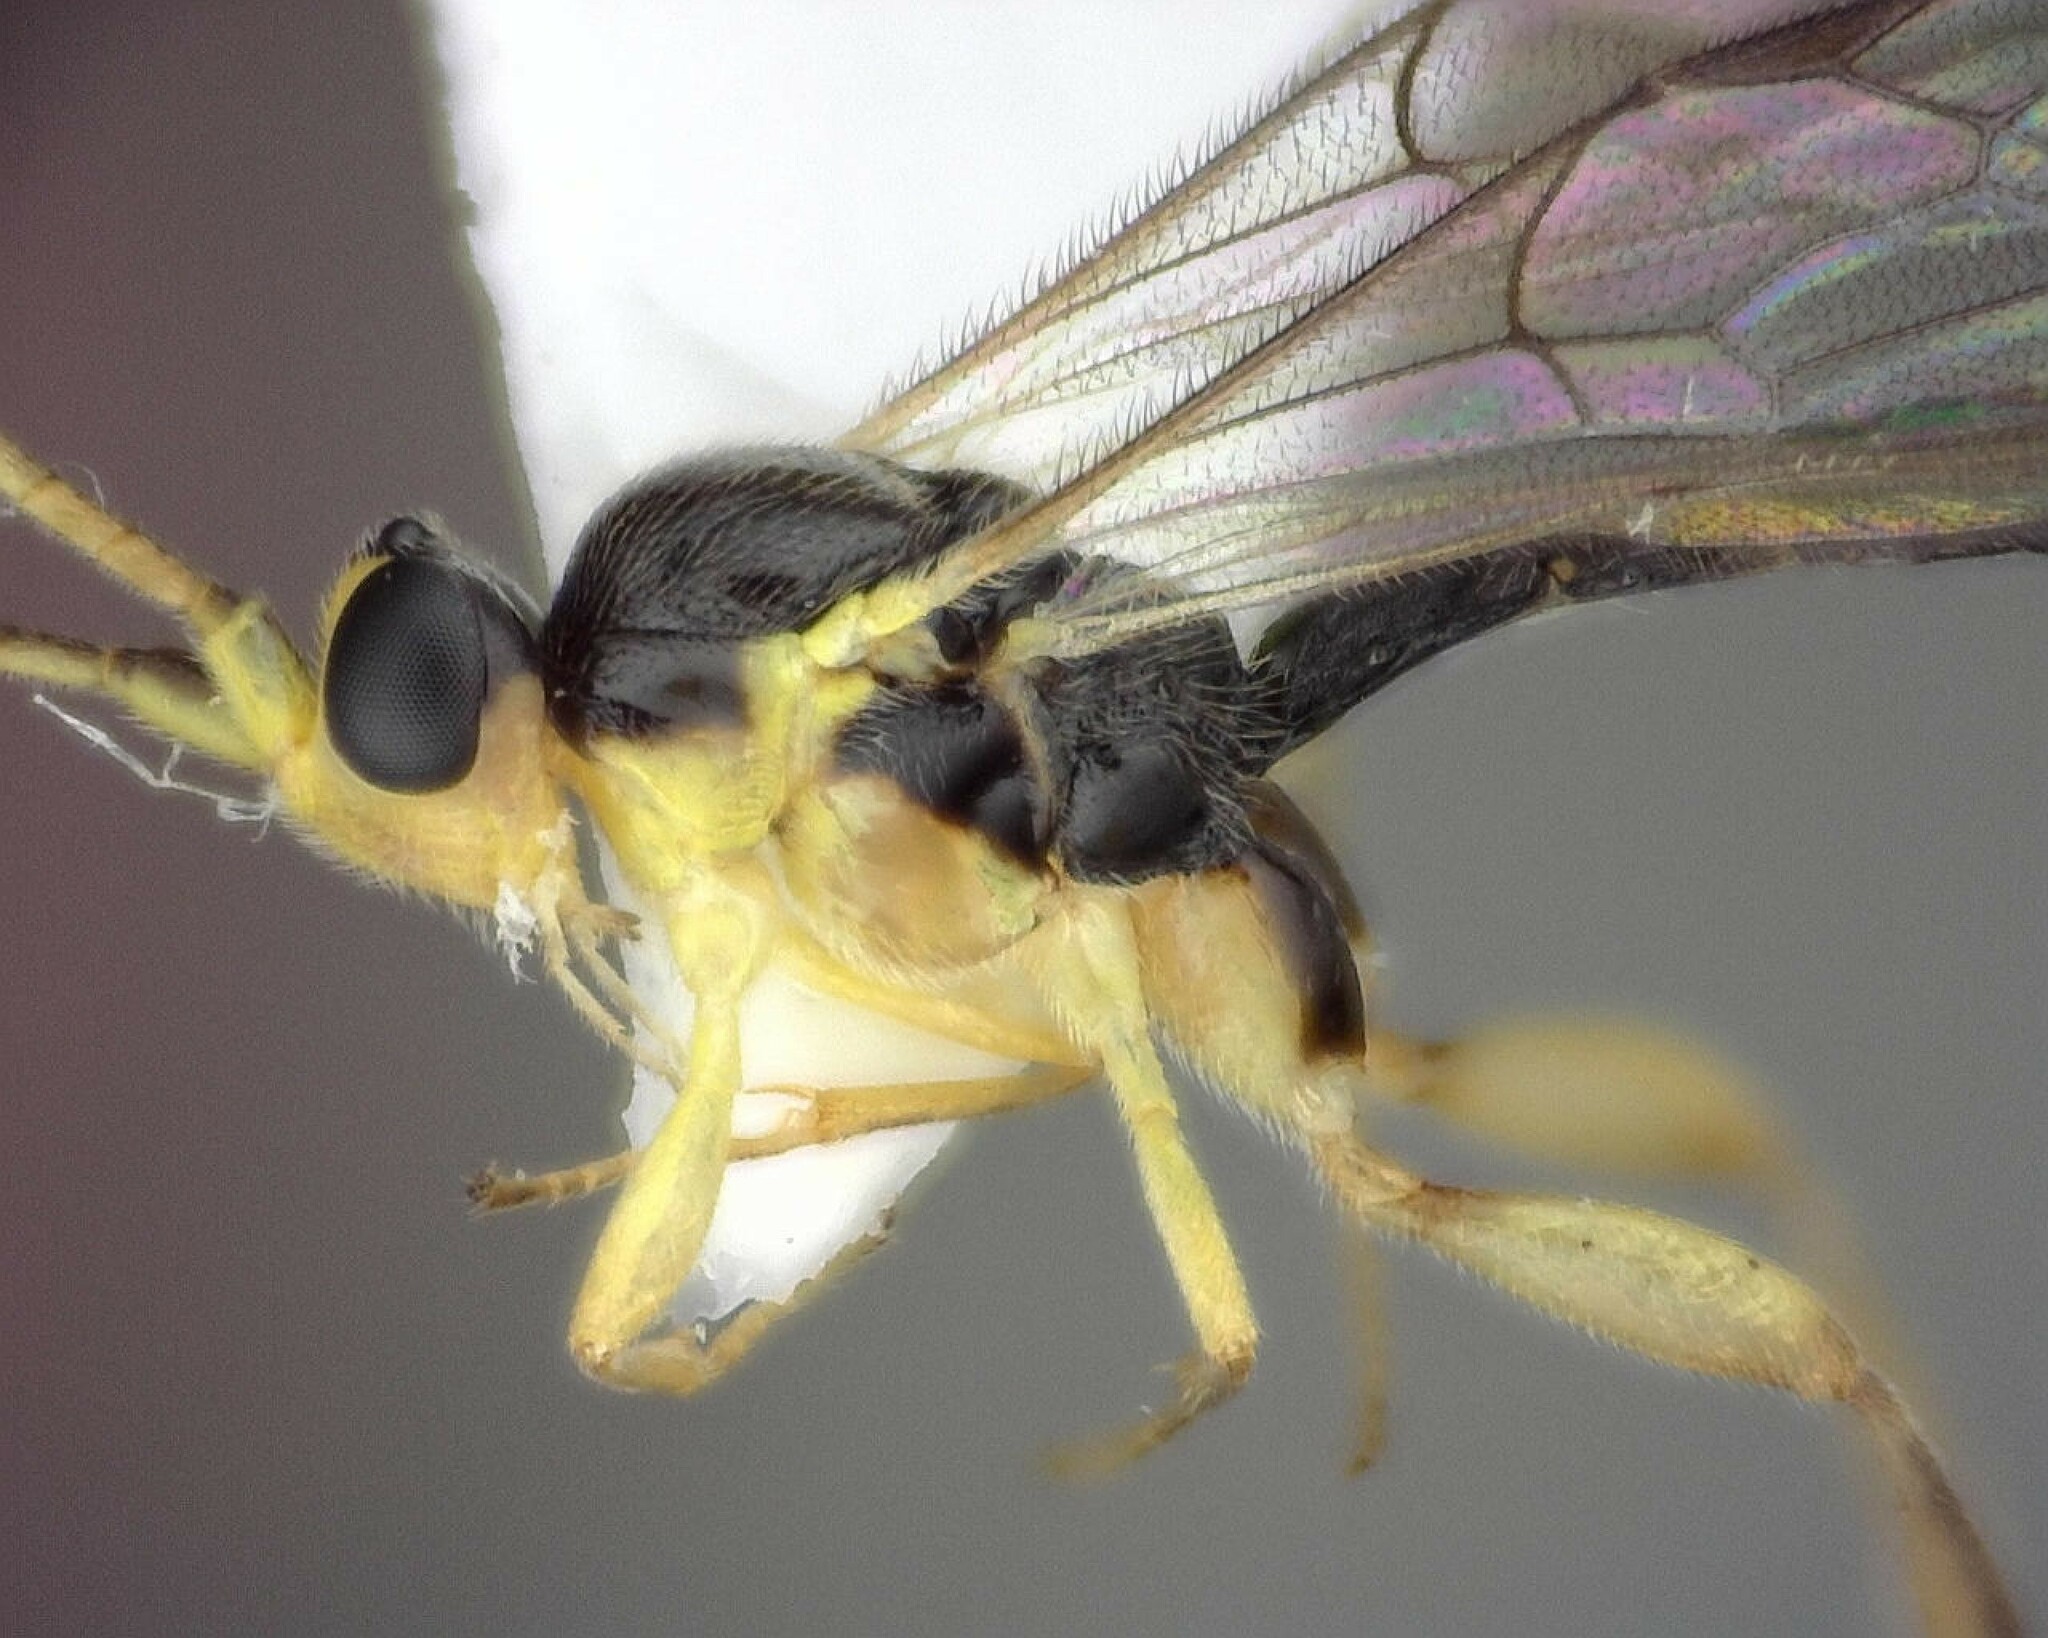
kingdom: Animalia
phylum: Arthropoda
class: Insecta
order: Hymenoptera
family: Ichneumonidae
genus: Orthocentrus
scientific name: Orthocentrus sannio
